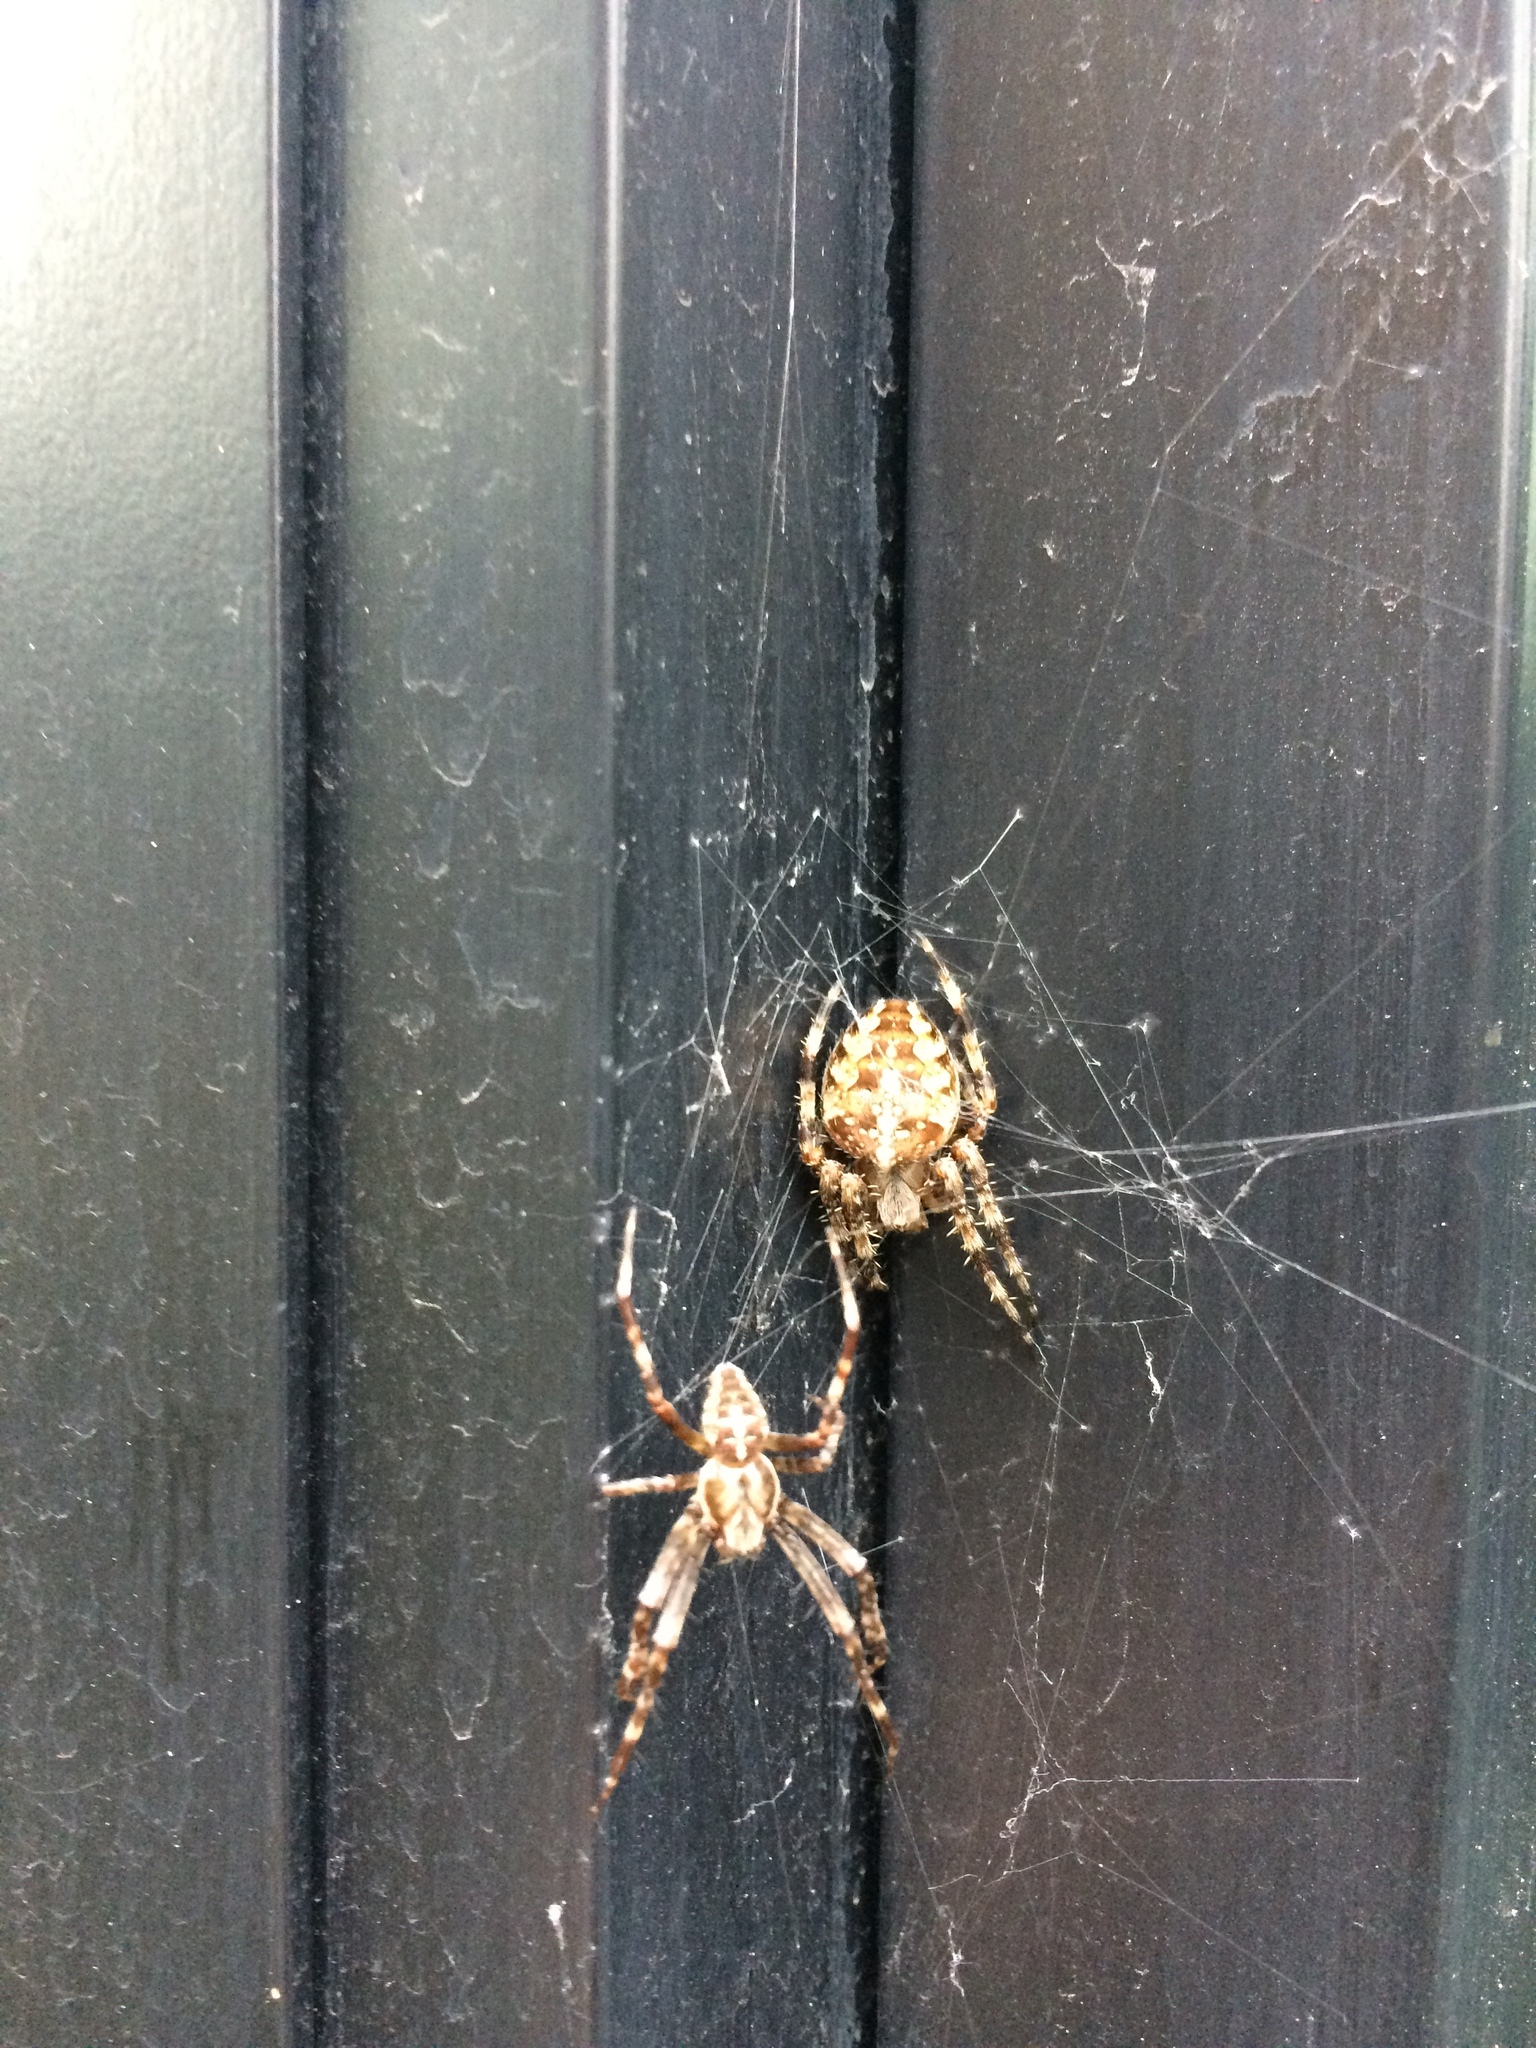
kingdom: Animalia
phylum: Arthropoda
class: Arachnida
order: Araneae
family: Araneidae
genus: Araneus
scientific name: Araneus diadematus
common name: Cross orbweaver
